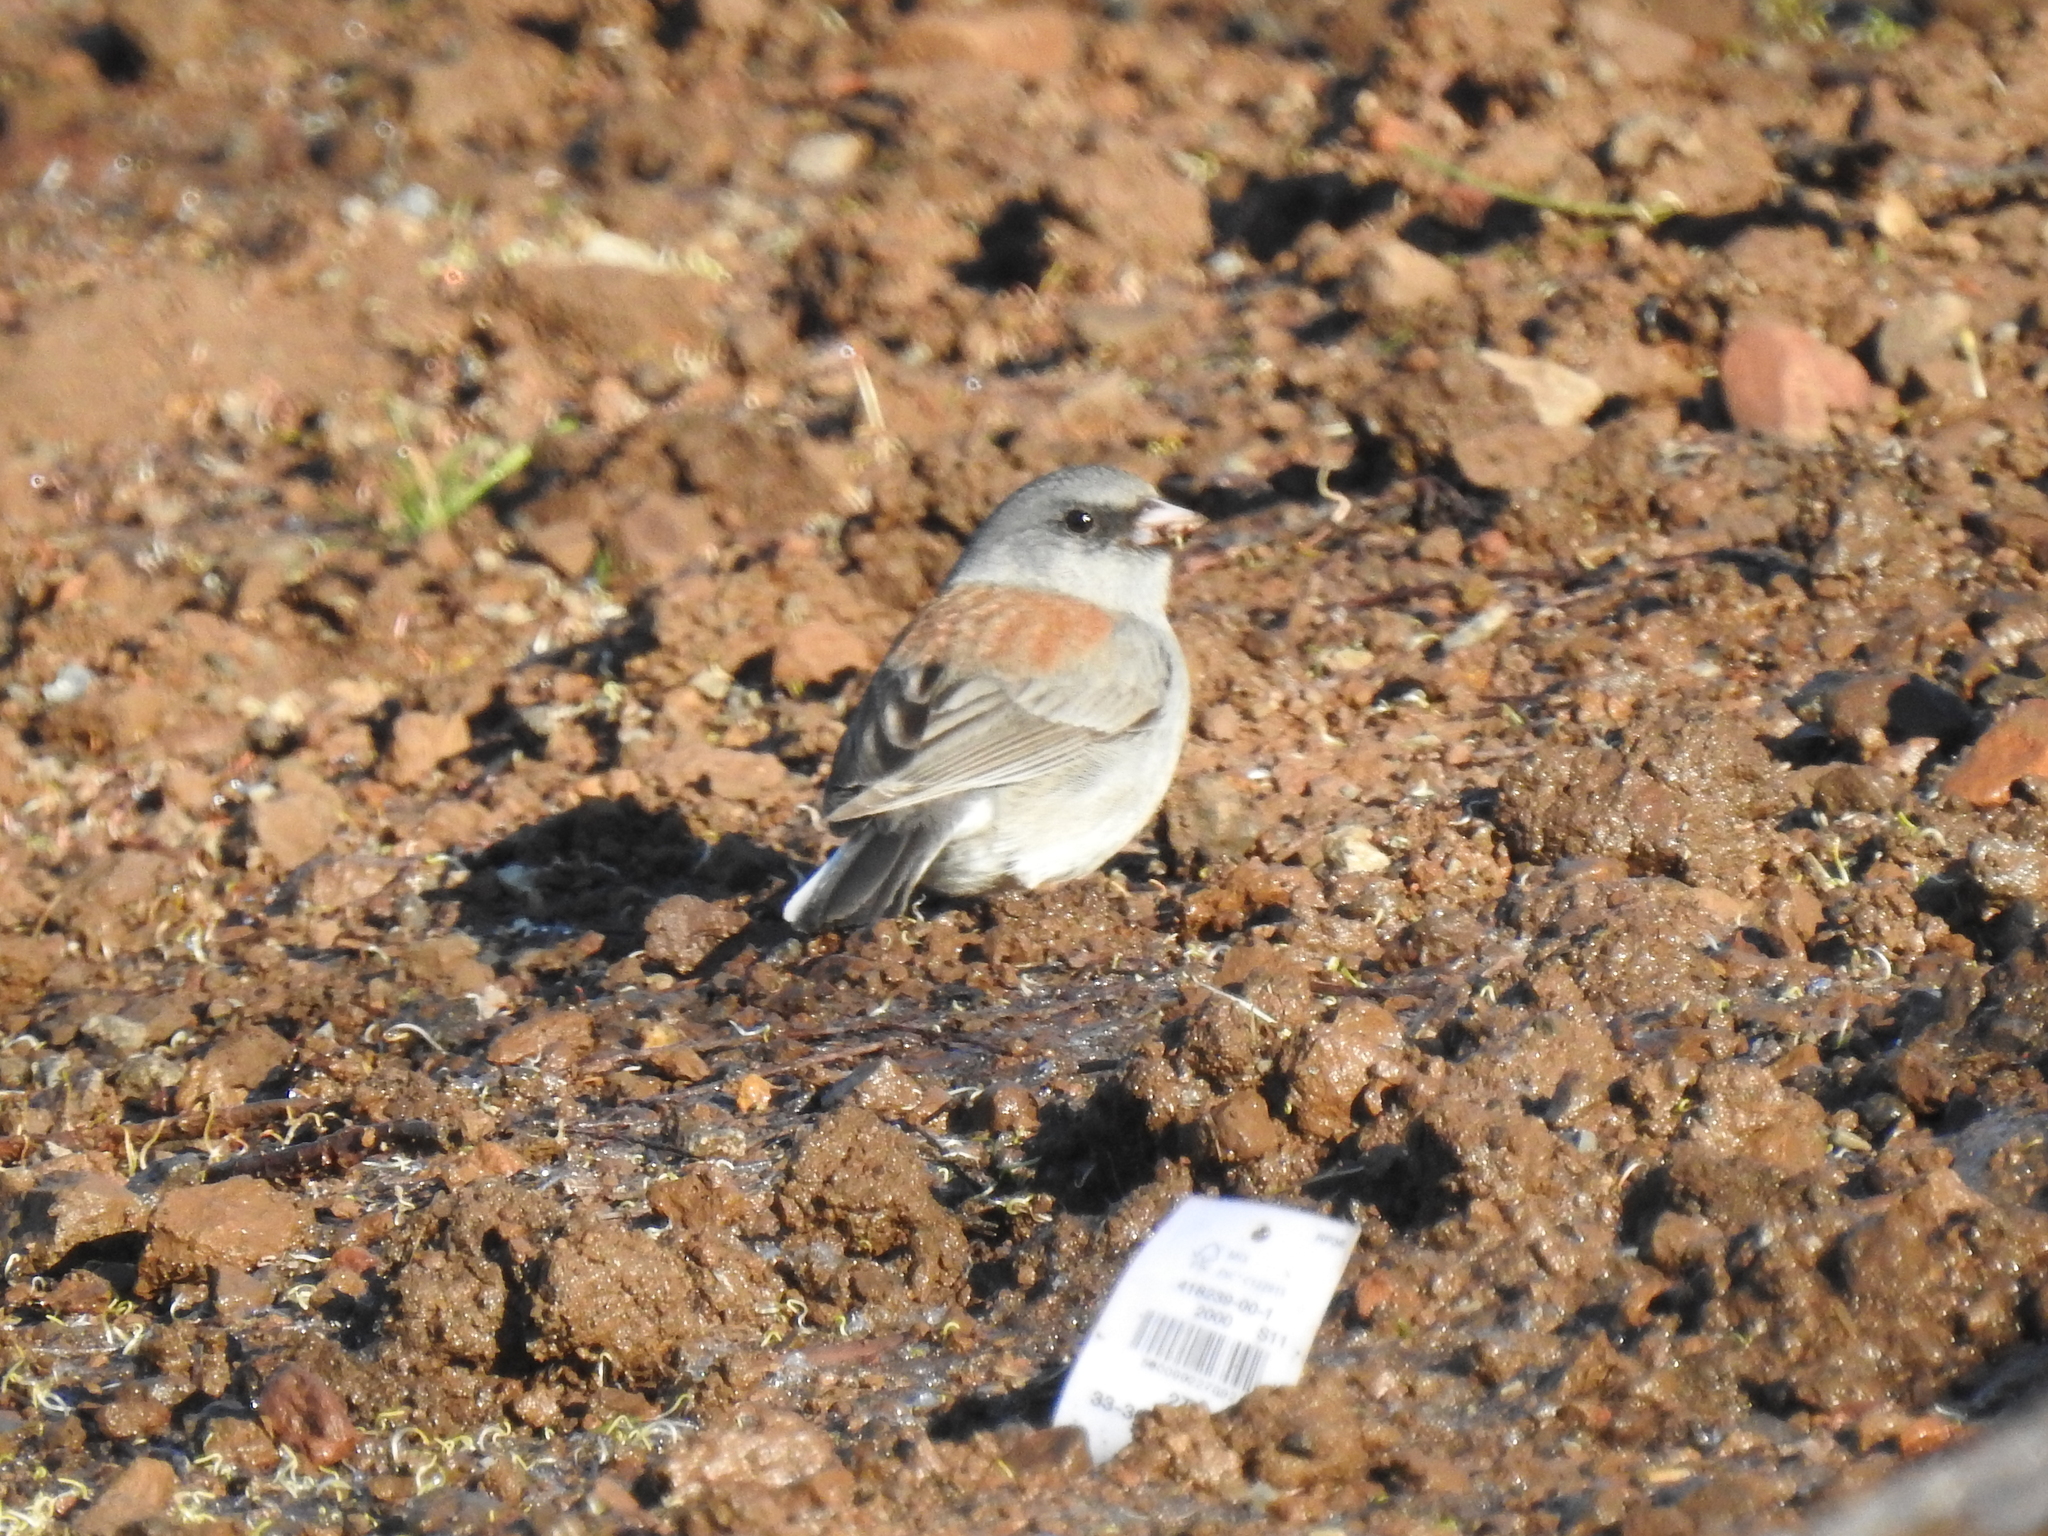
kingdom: Animalia
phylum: Chordata
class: Aves
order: Passeriformes
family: Passerellidae
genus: Junco
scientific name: Junco hyemalis
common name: Dark-eyed junco
